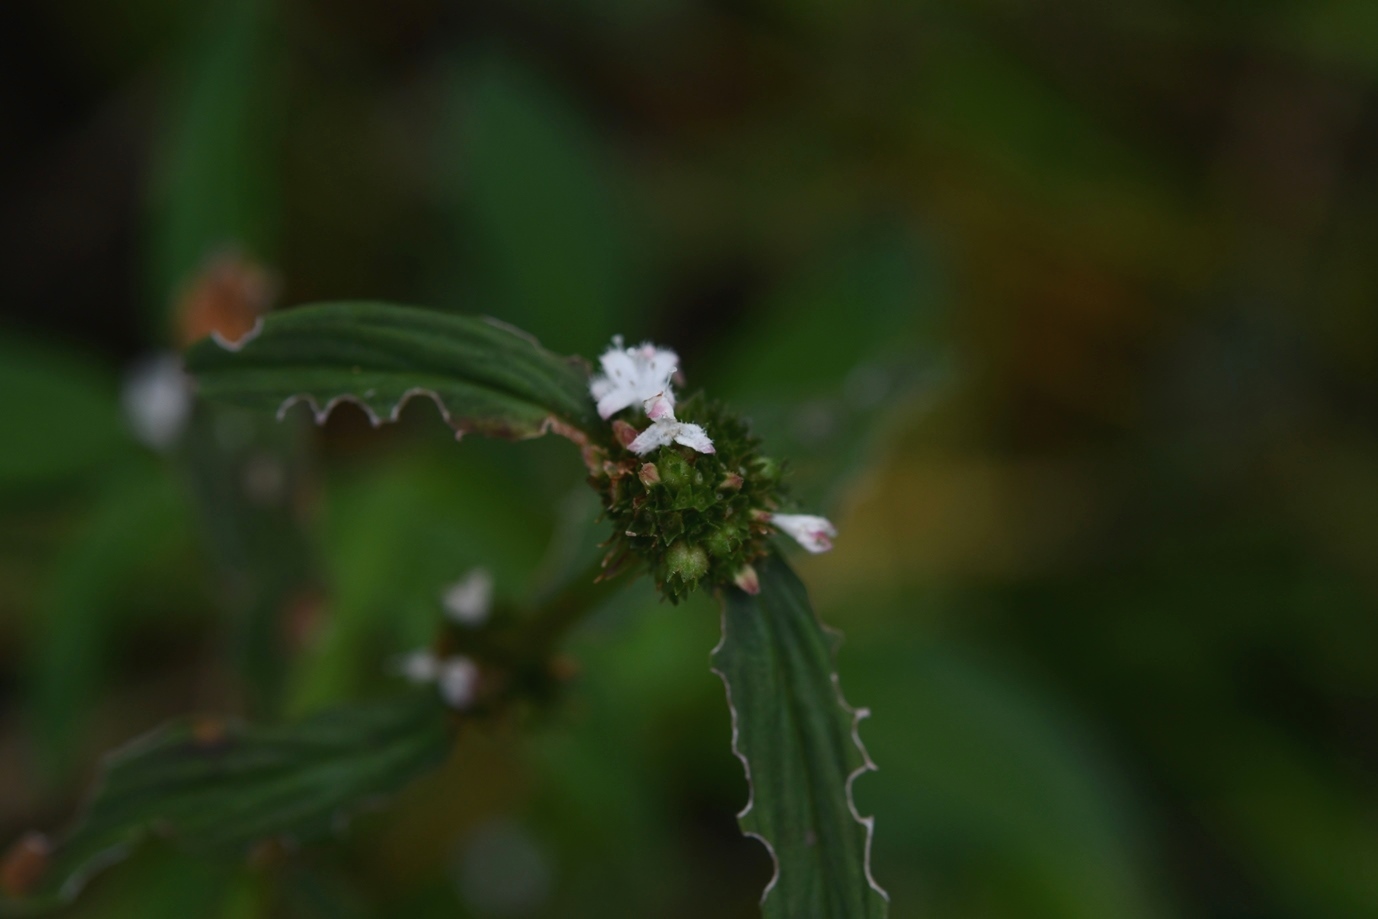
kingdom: Plantae
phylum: Tracheophyta
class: Magnoliopsida
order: Gentianales
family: Rubiaceae
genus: Spermacoce
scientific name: Spermacoce remota
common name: Woodland false buttonweed
